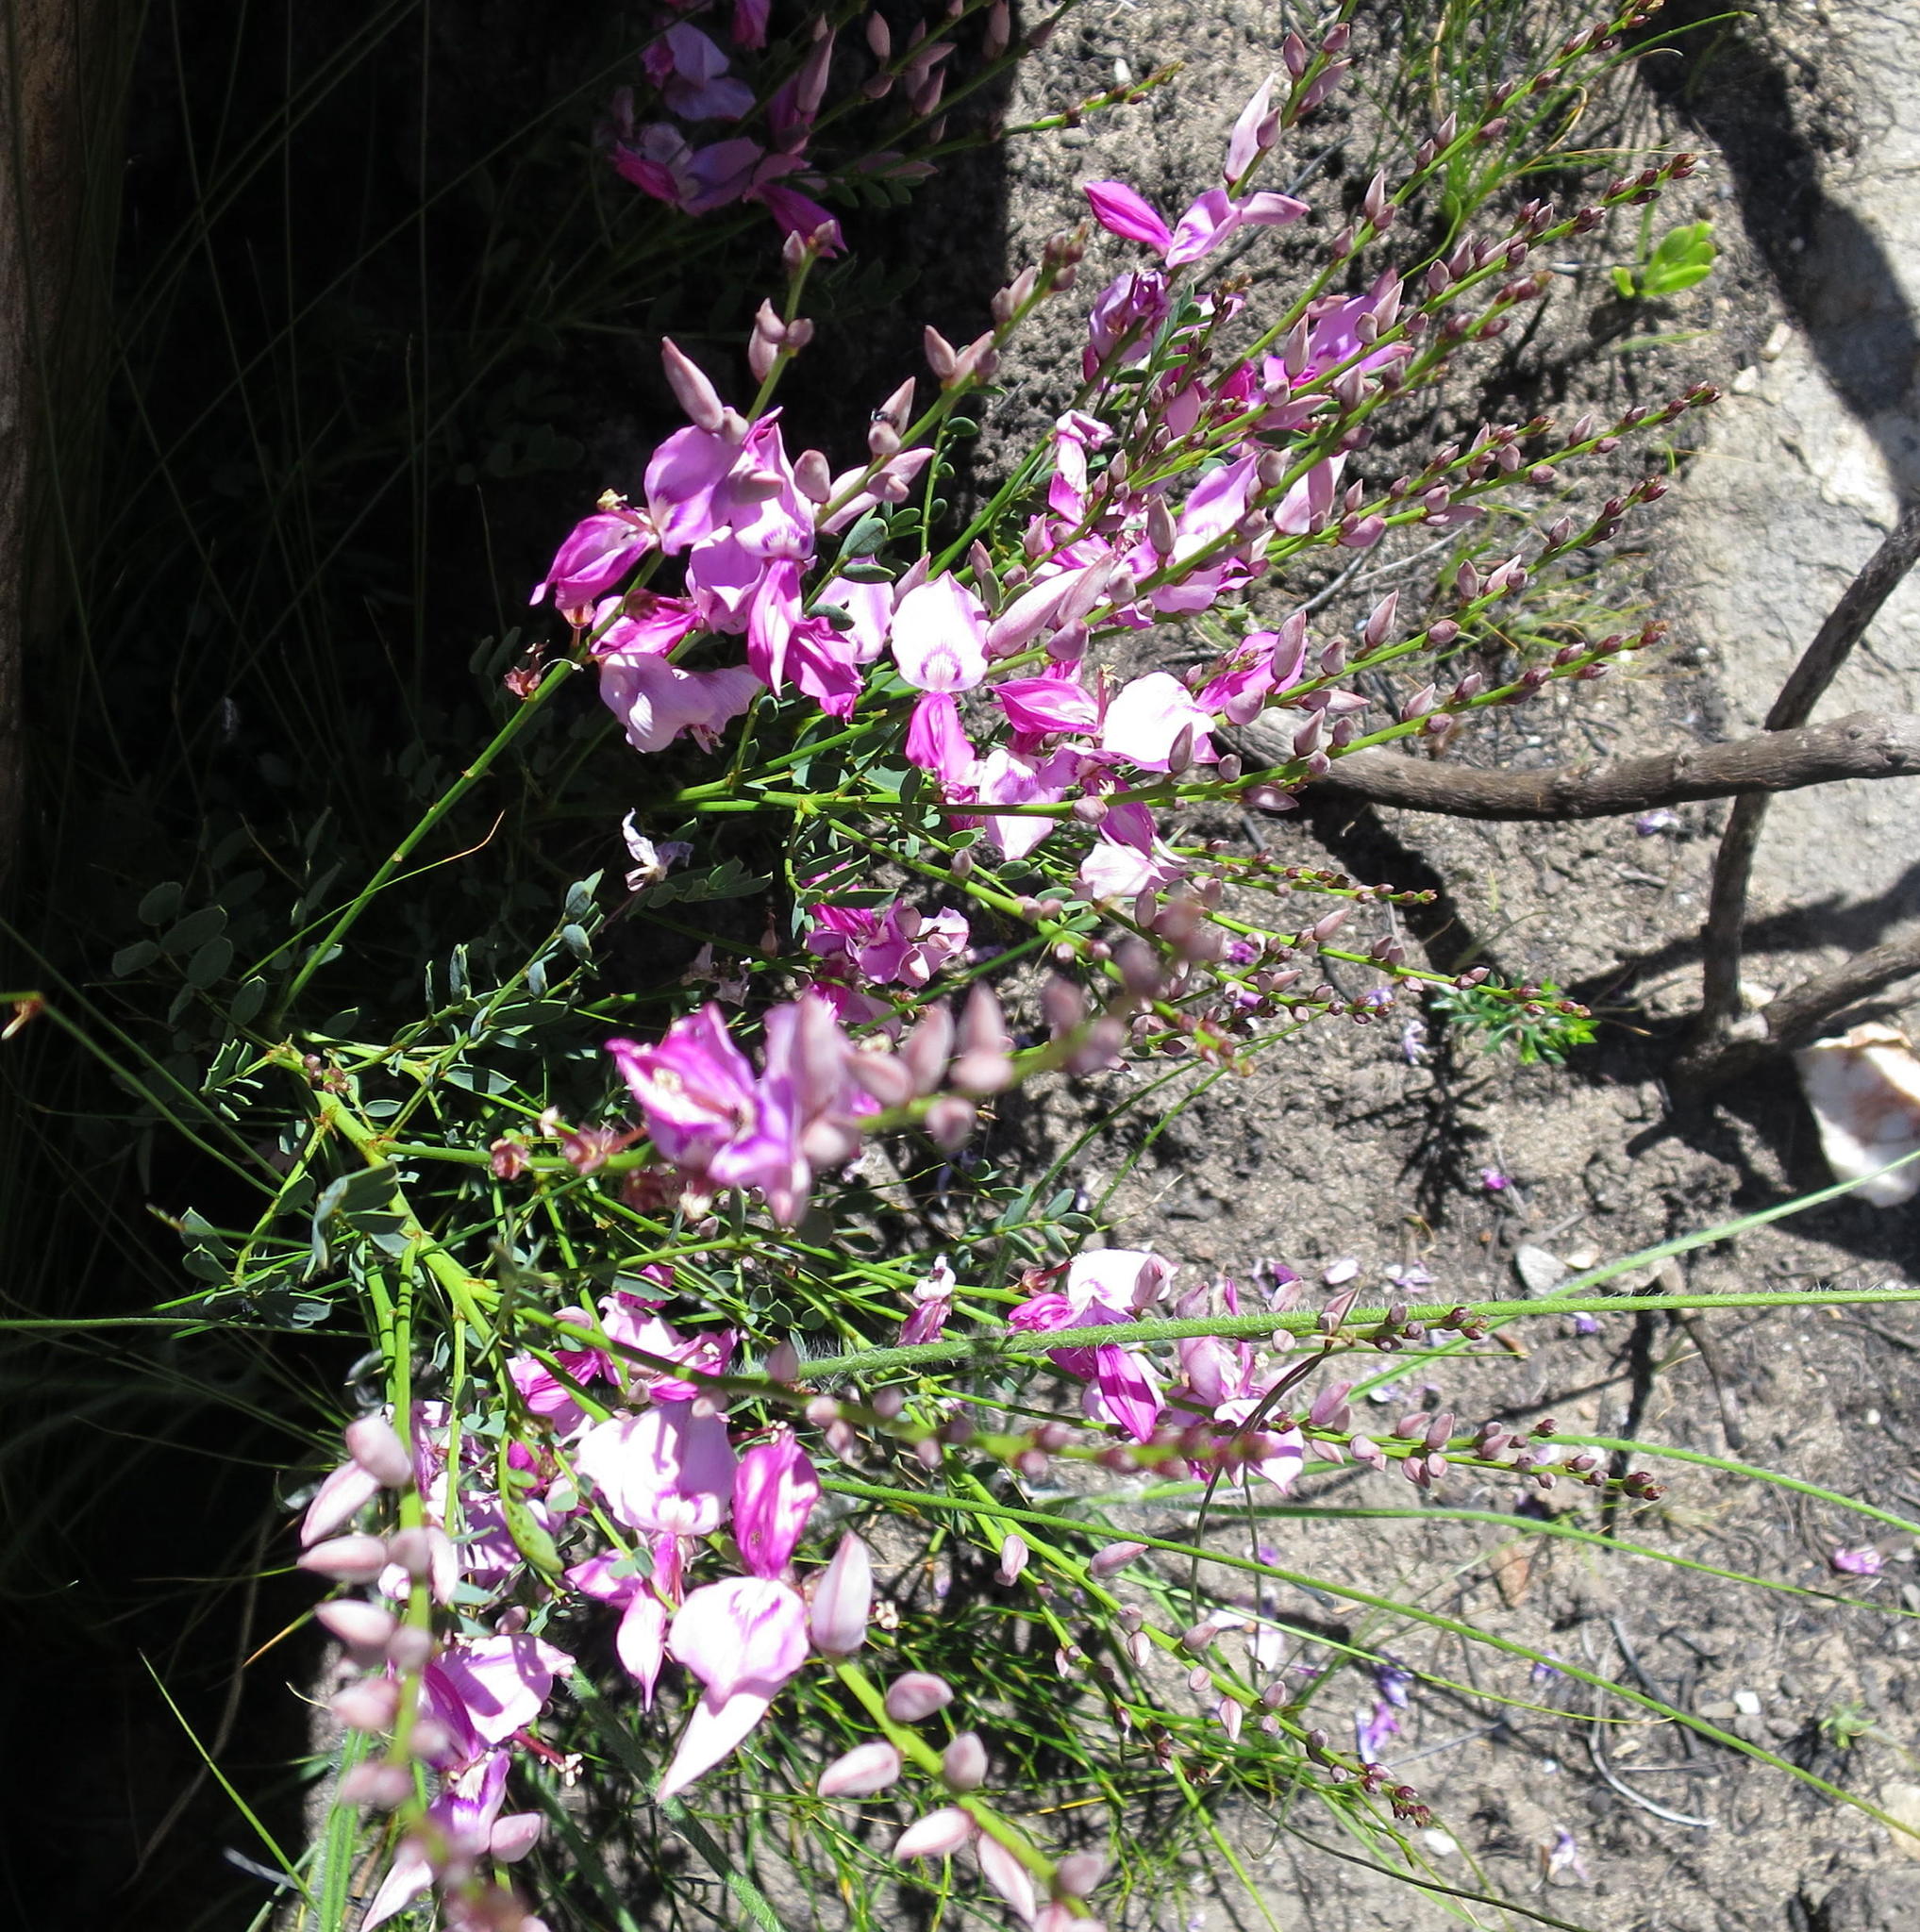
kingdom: Plantae
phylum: Tracheophyta
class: Magnoliopsida
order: Fabales
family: Fabaceae
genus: Indigofera
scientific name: Indigofera langebergensis
